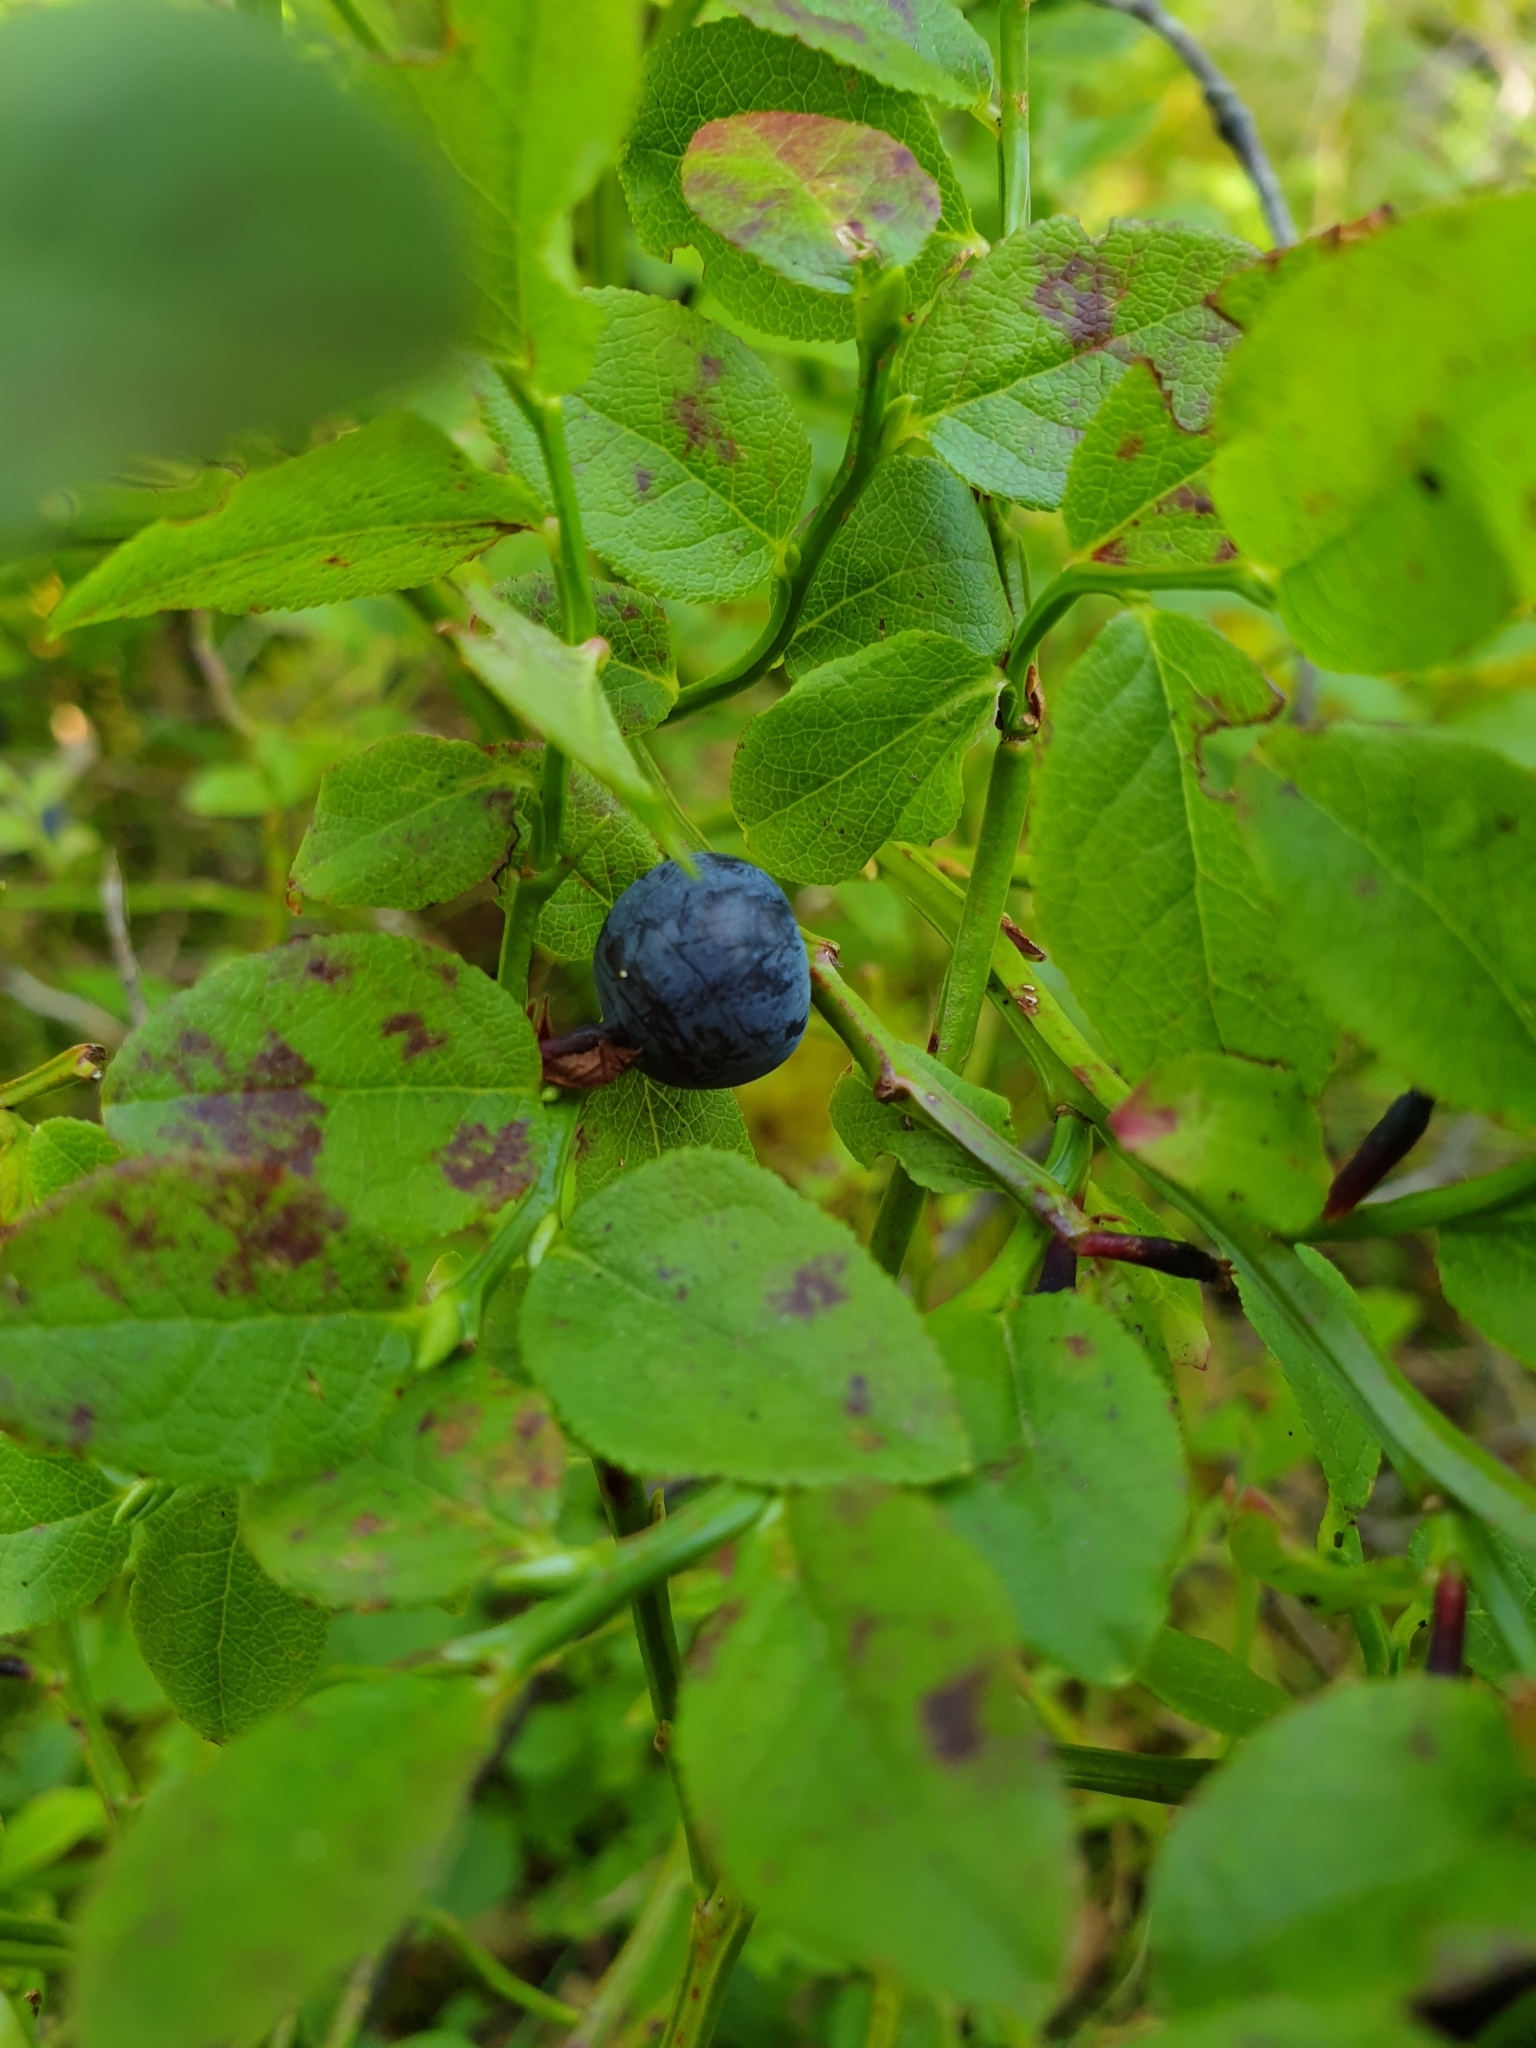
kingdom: Plantae
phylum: Tracheophyta
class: Magnoliopsida
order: Ericales
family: Ericaceae
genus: Vaccinium
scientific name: Vaccinium myrtillus
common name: Bilberry
